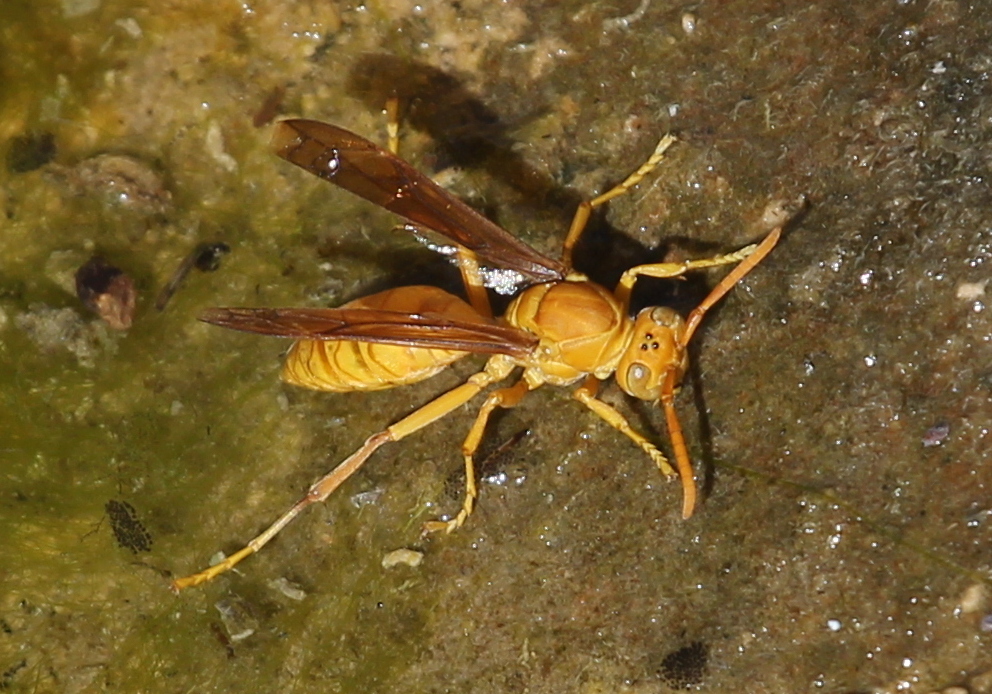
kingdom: Animalia
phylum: Arthropoda
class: Insecta
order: Hymenoptera
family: Eumenidae
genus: Polistes
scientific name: Polistes wattii
